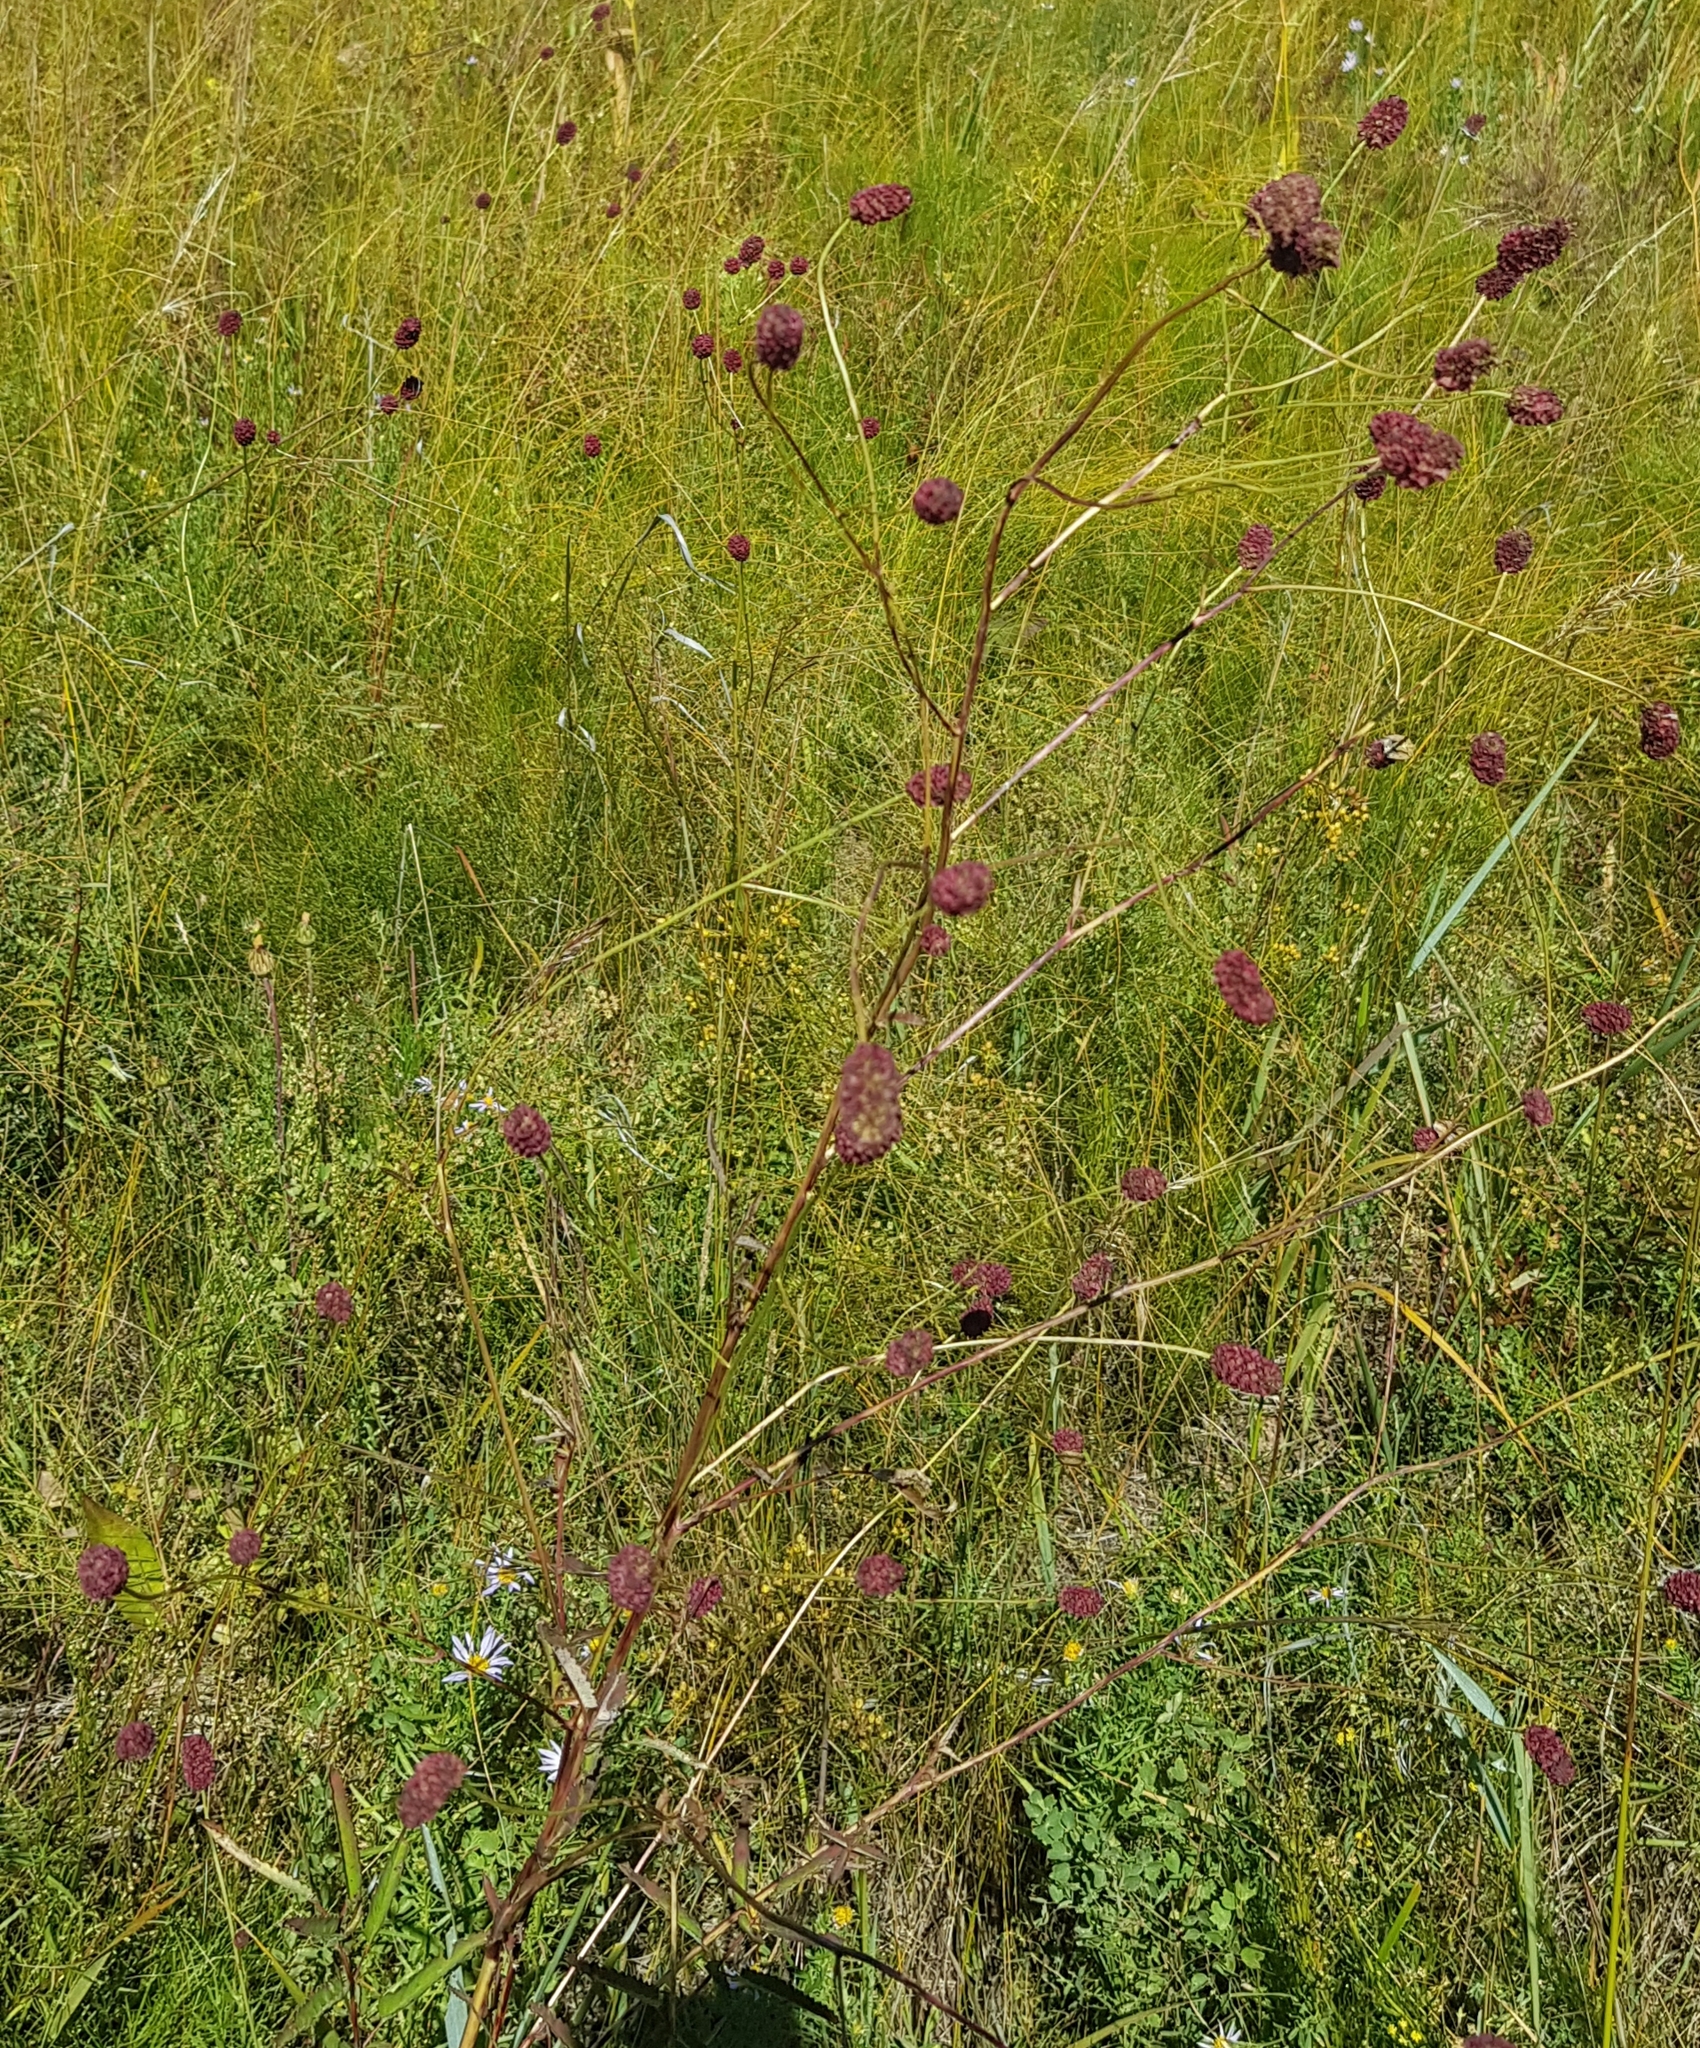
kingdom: Plantae
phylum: Tracheophyta
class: Magnoliopsida
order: Rosales
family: Rosaceae
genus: Sanguisorba
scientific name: Sanguisorba officinalis
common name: Great burnet
